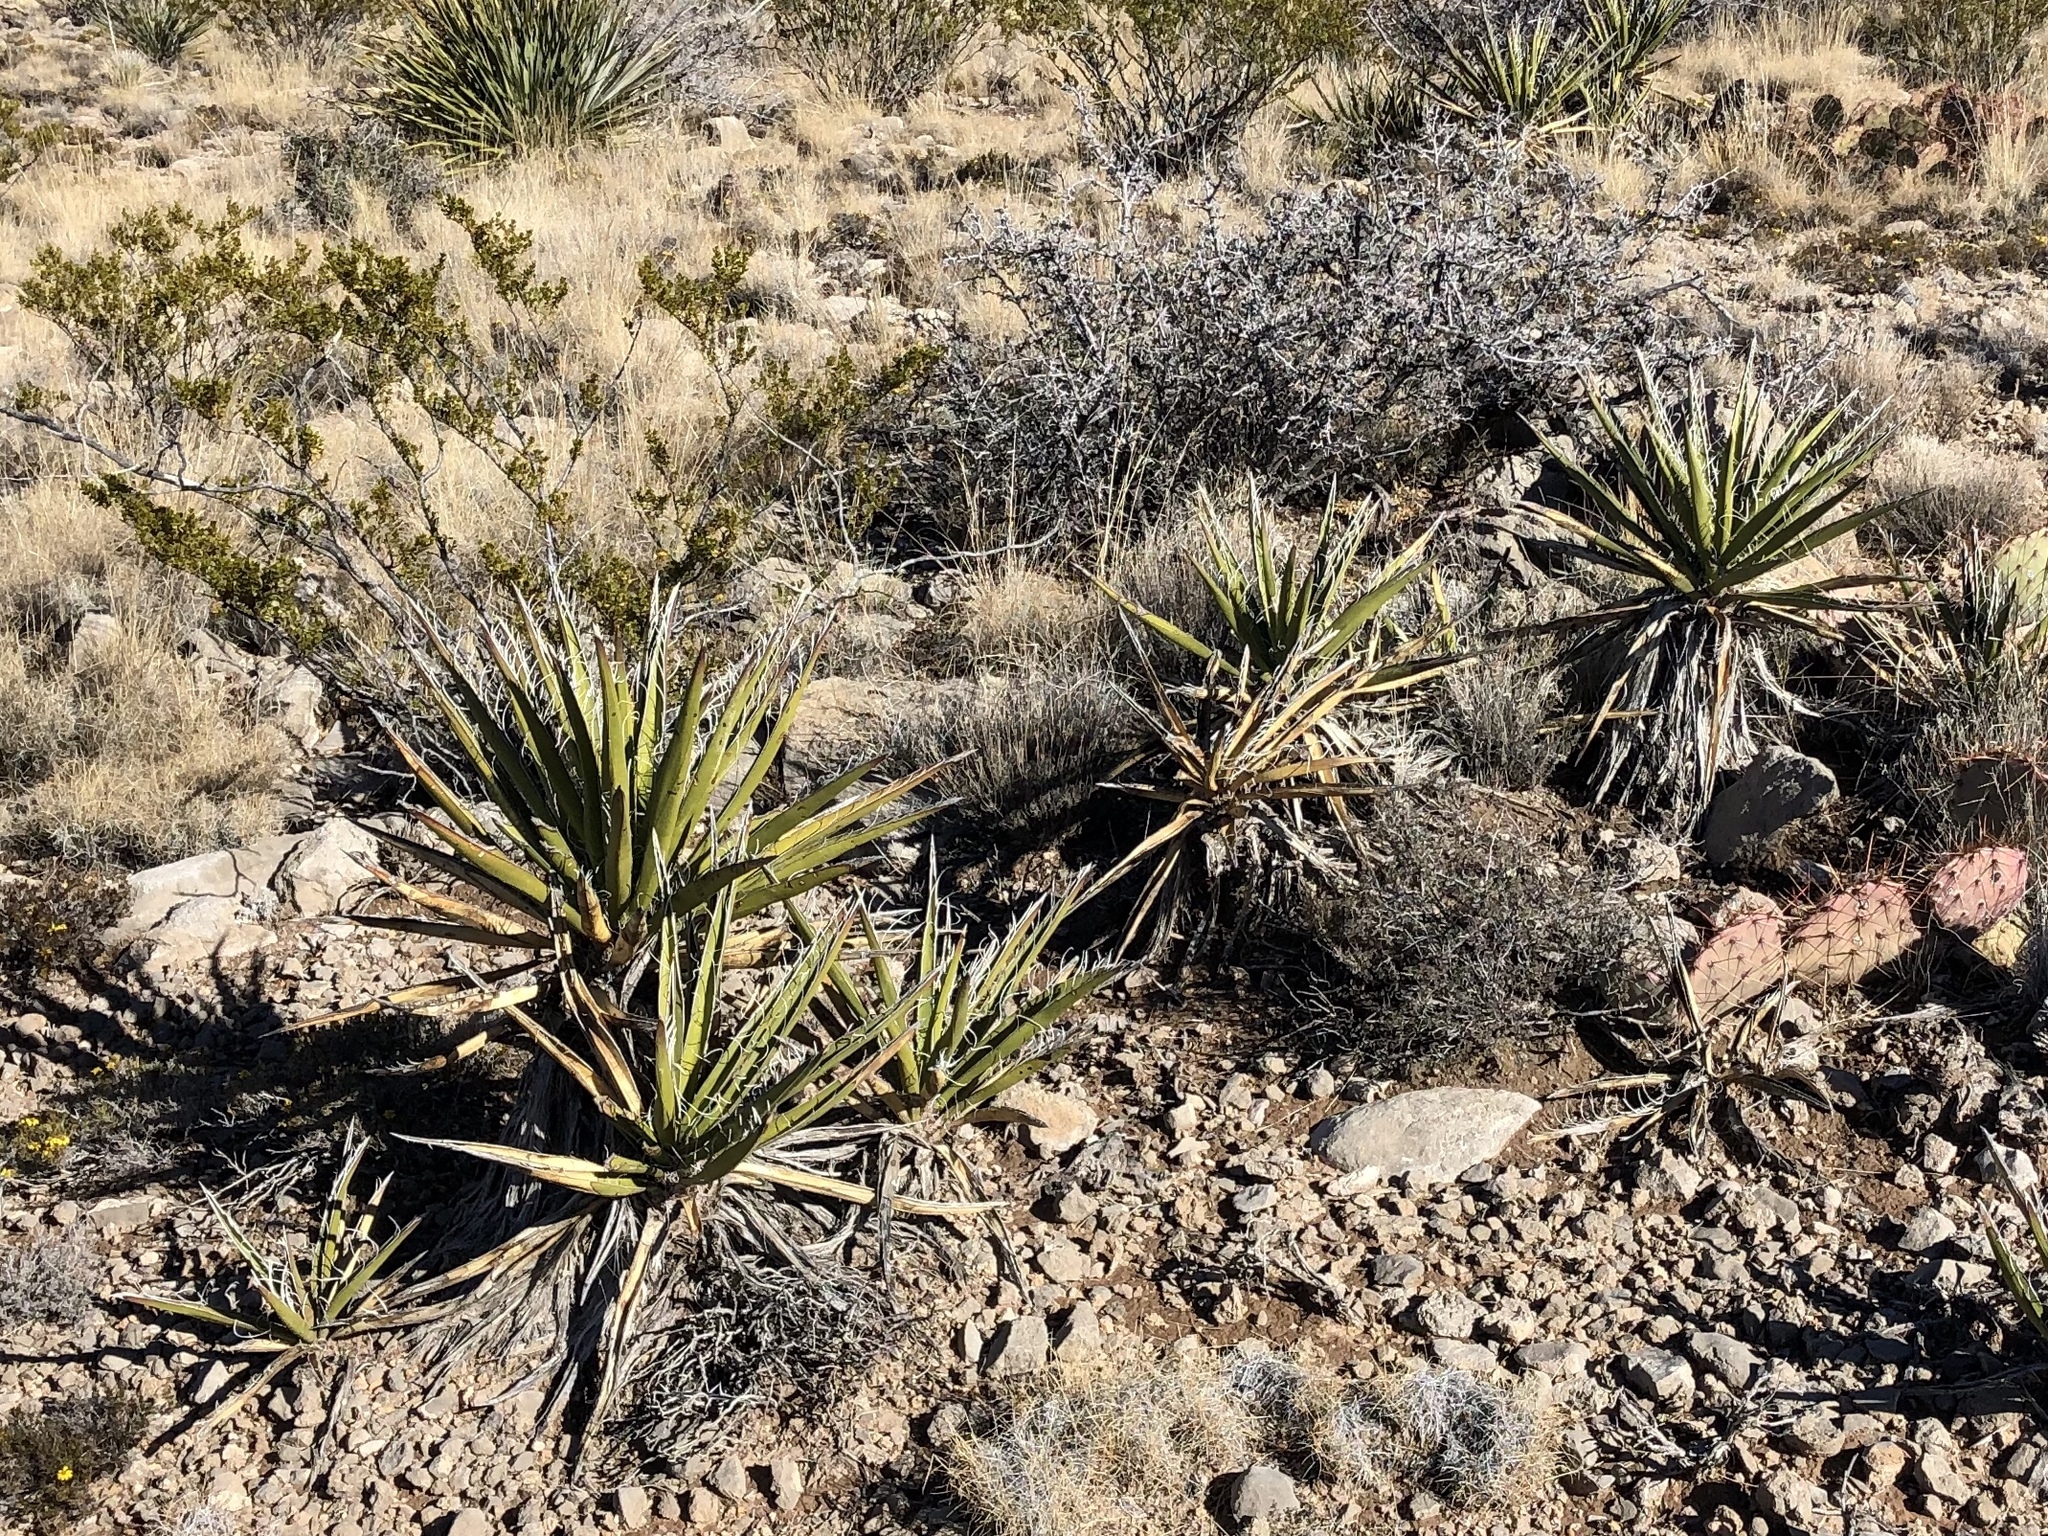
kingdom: Plantae
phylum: Tracheophyta
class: Liliopsida
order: Asparagales
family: Asparagaceae
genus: Yucca
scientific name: Yucca baccata
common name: Banana yucca
